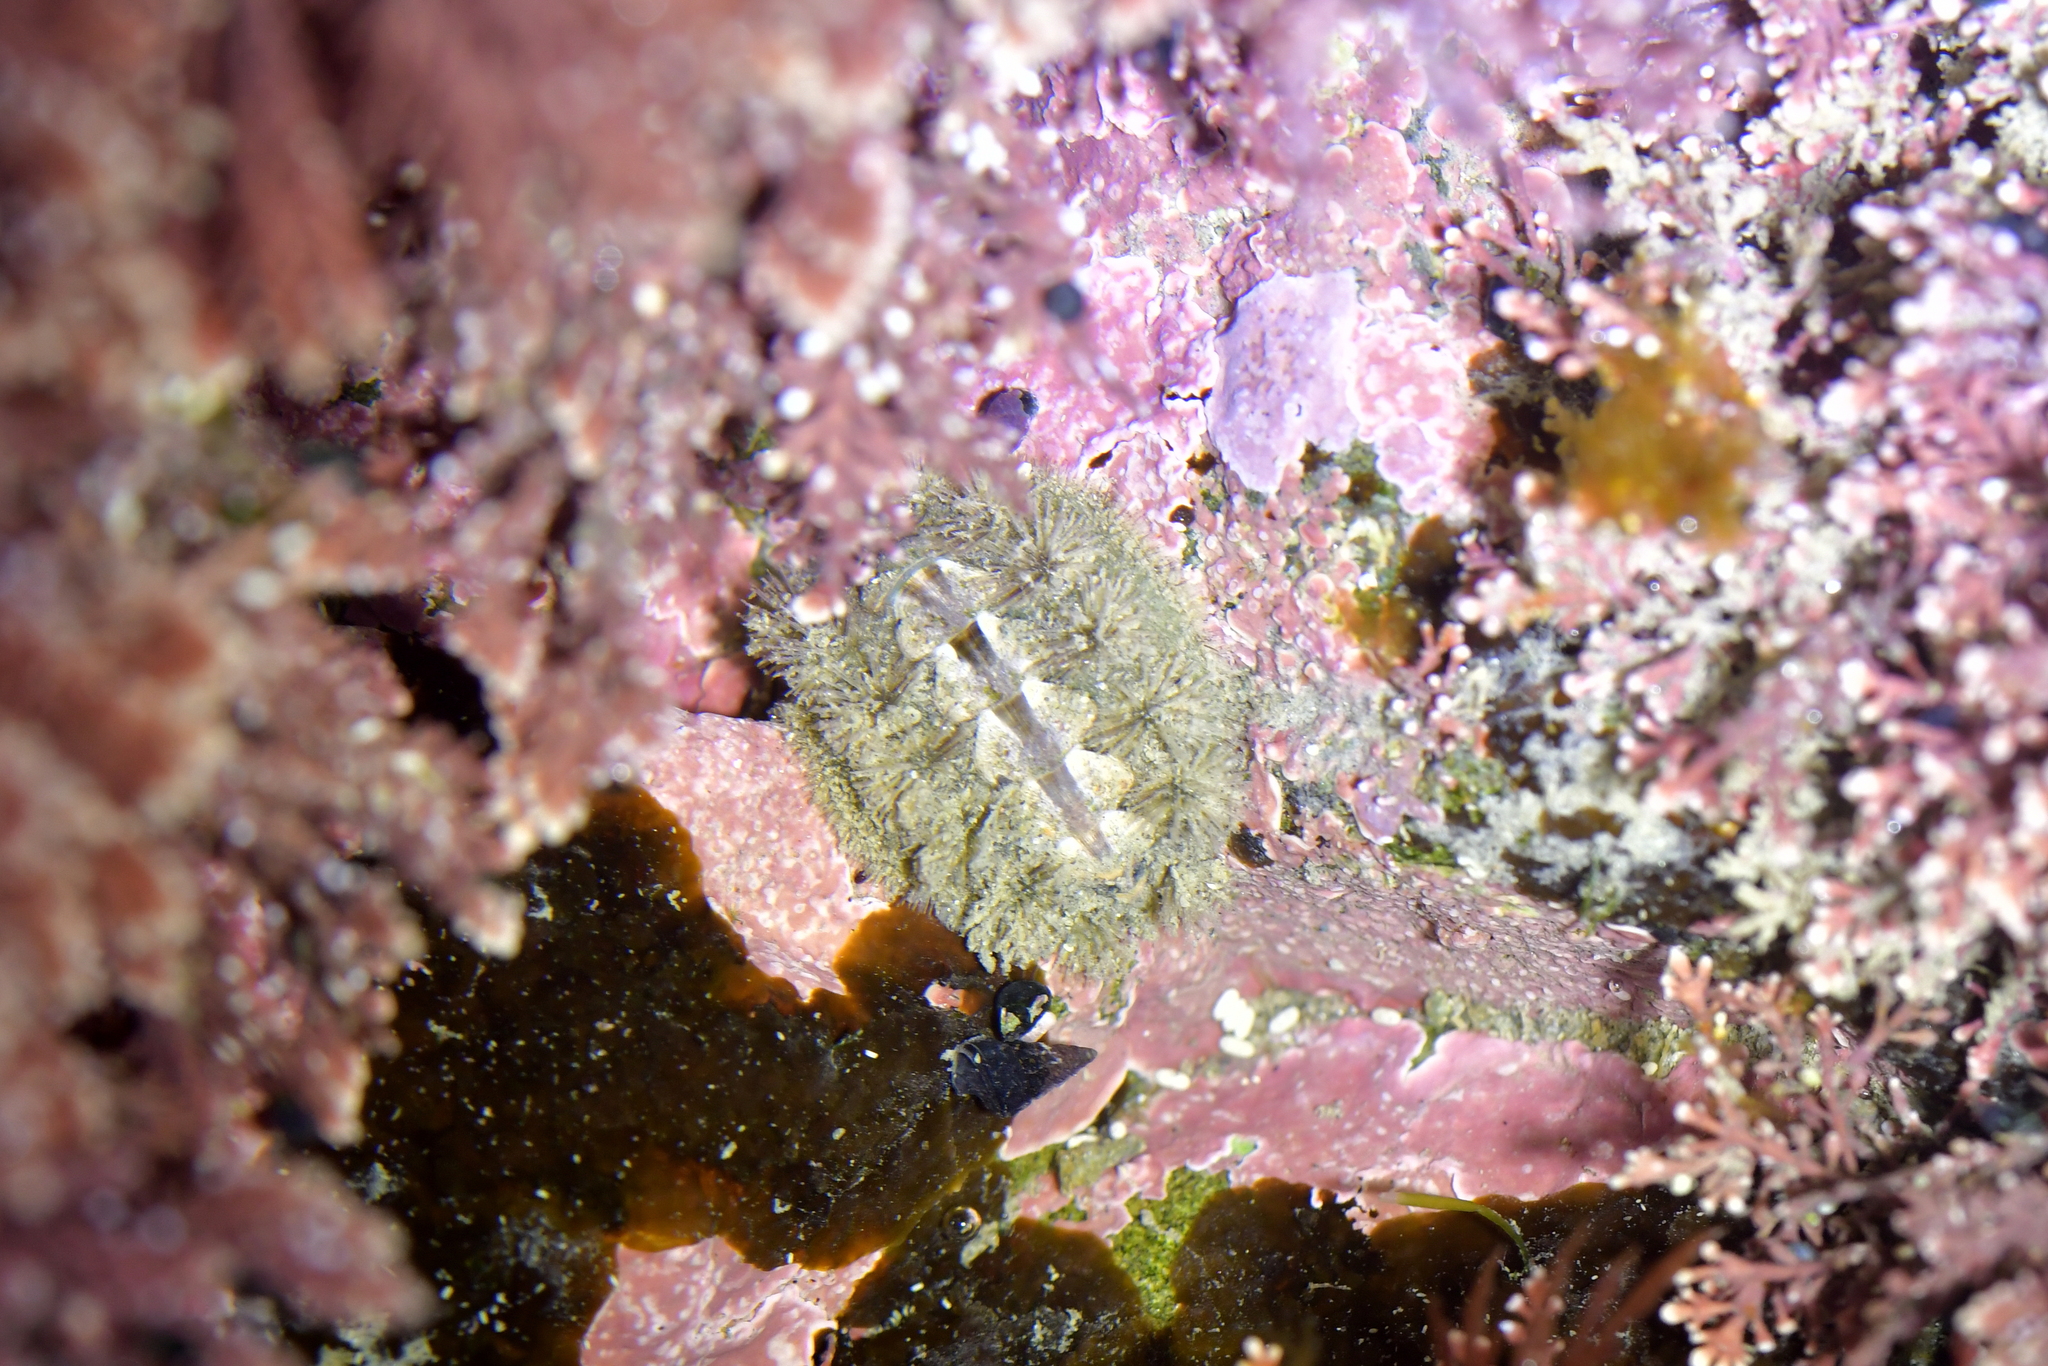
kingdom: Animalia
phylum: Mollusca
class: Polyplacophora
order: Chitonida
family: Acanthochitonidae
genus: Acanthochitona
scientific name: Acanthochitona zelandica
